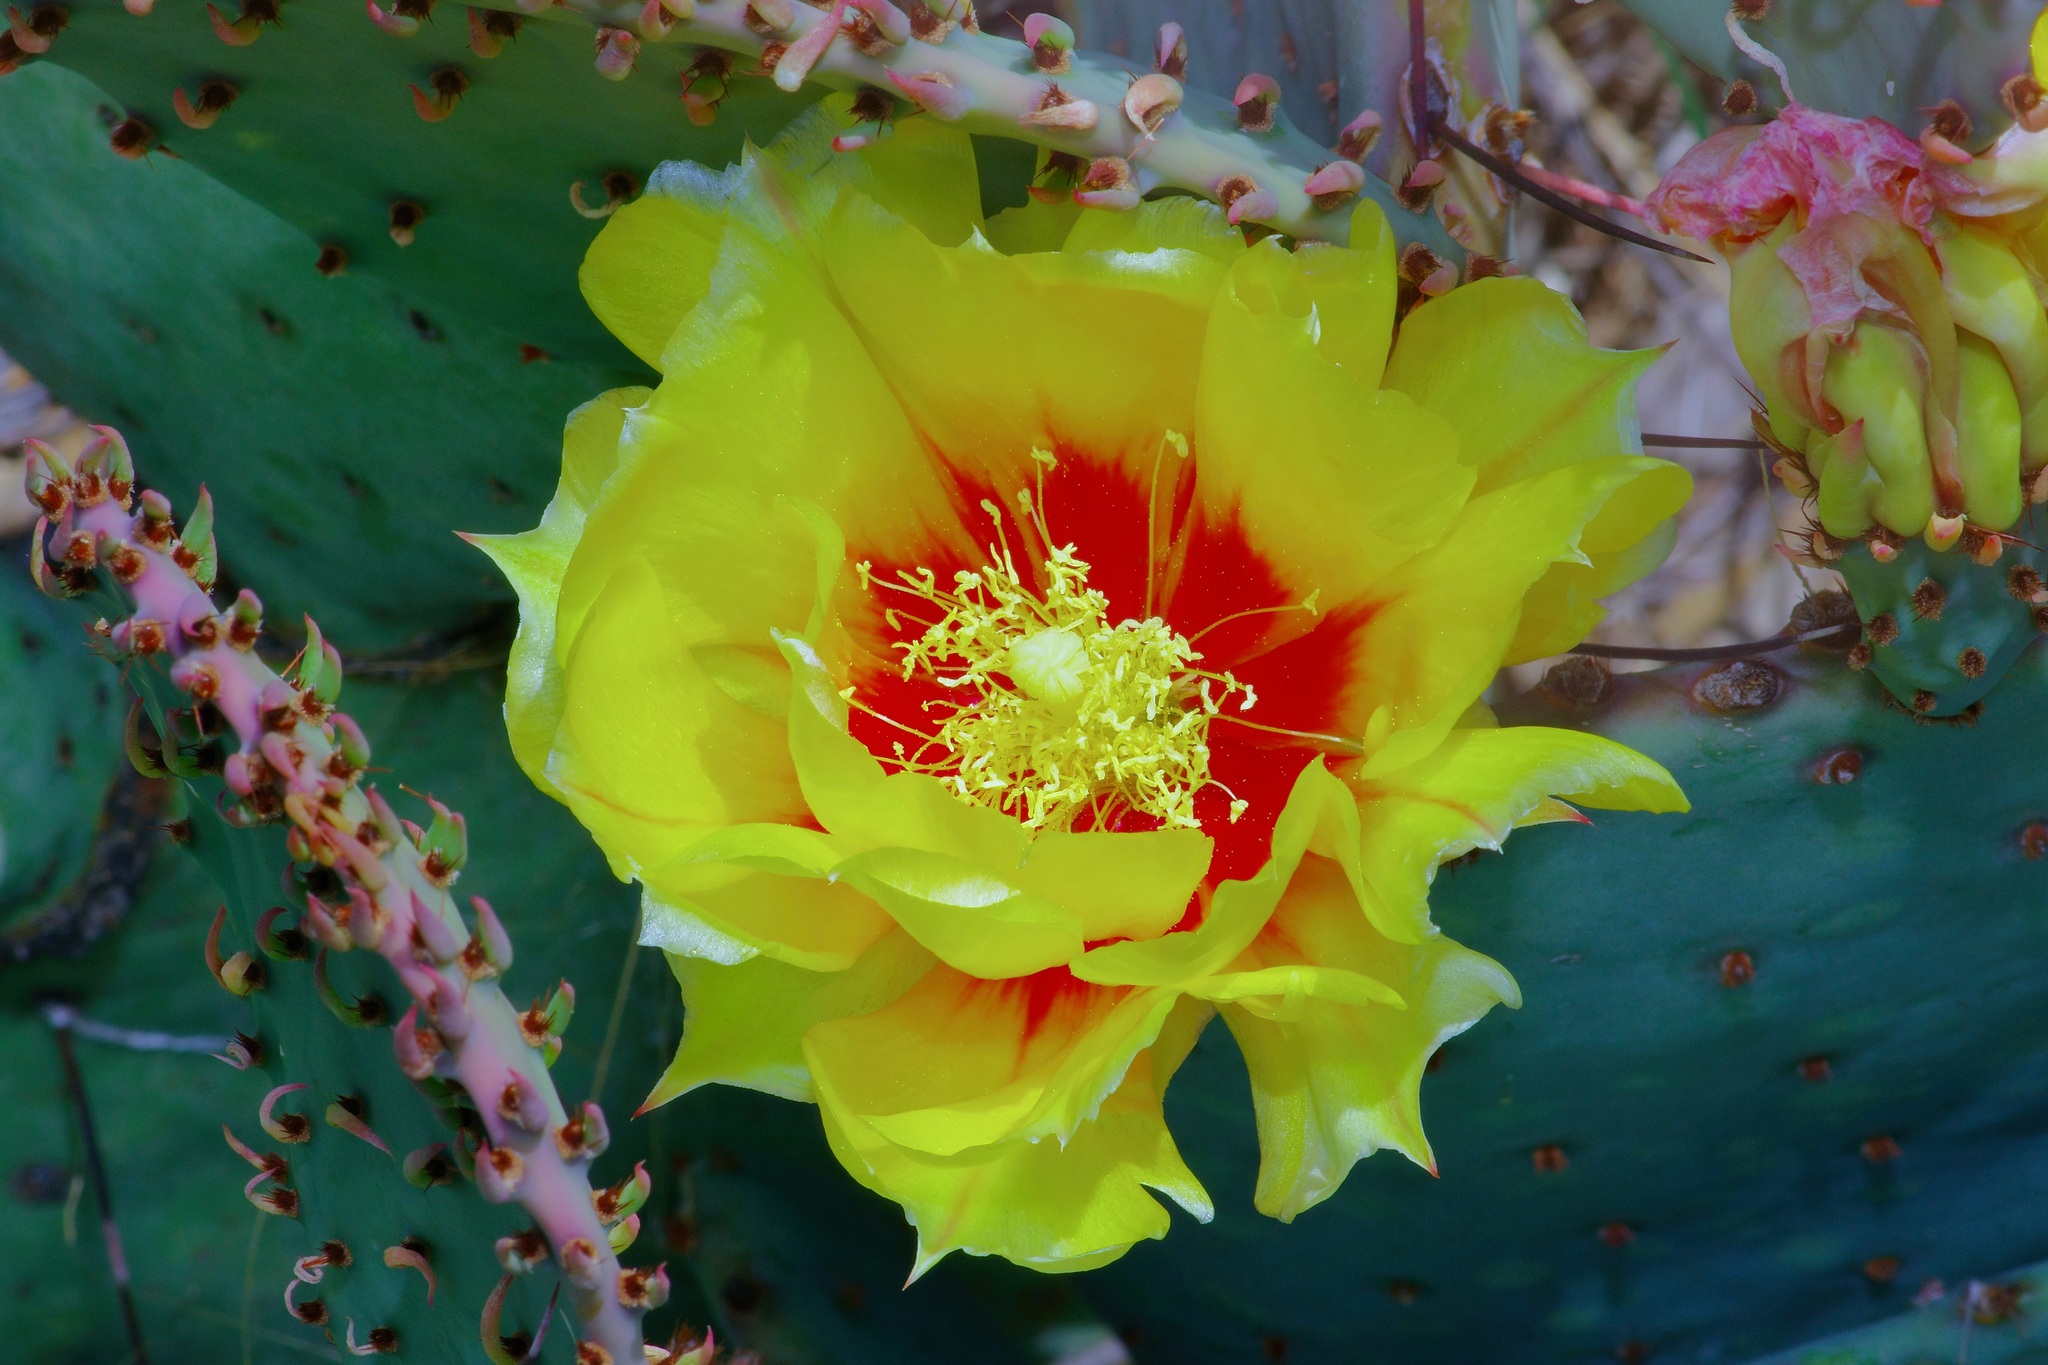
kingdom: Plantae
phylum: Tracheophyta
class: Magnoliopsida
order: Caryophyllales
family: Cactaceae
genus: Opuntia
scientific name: Opuntia phaeacantha
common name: New mexico prickly-pear
